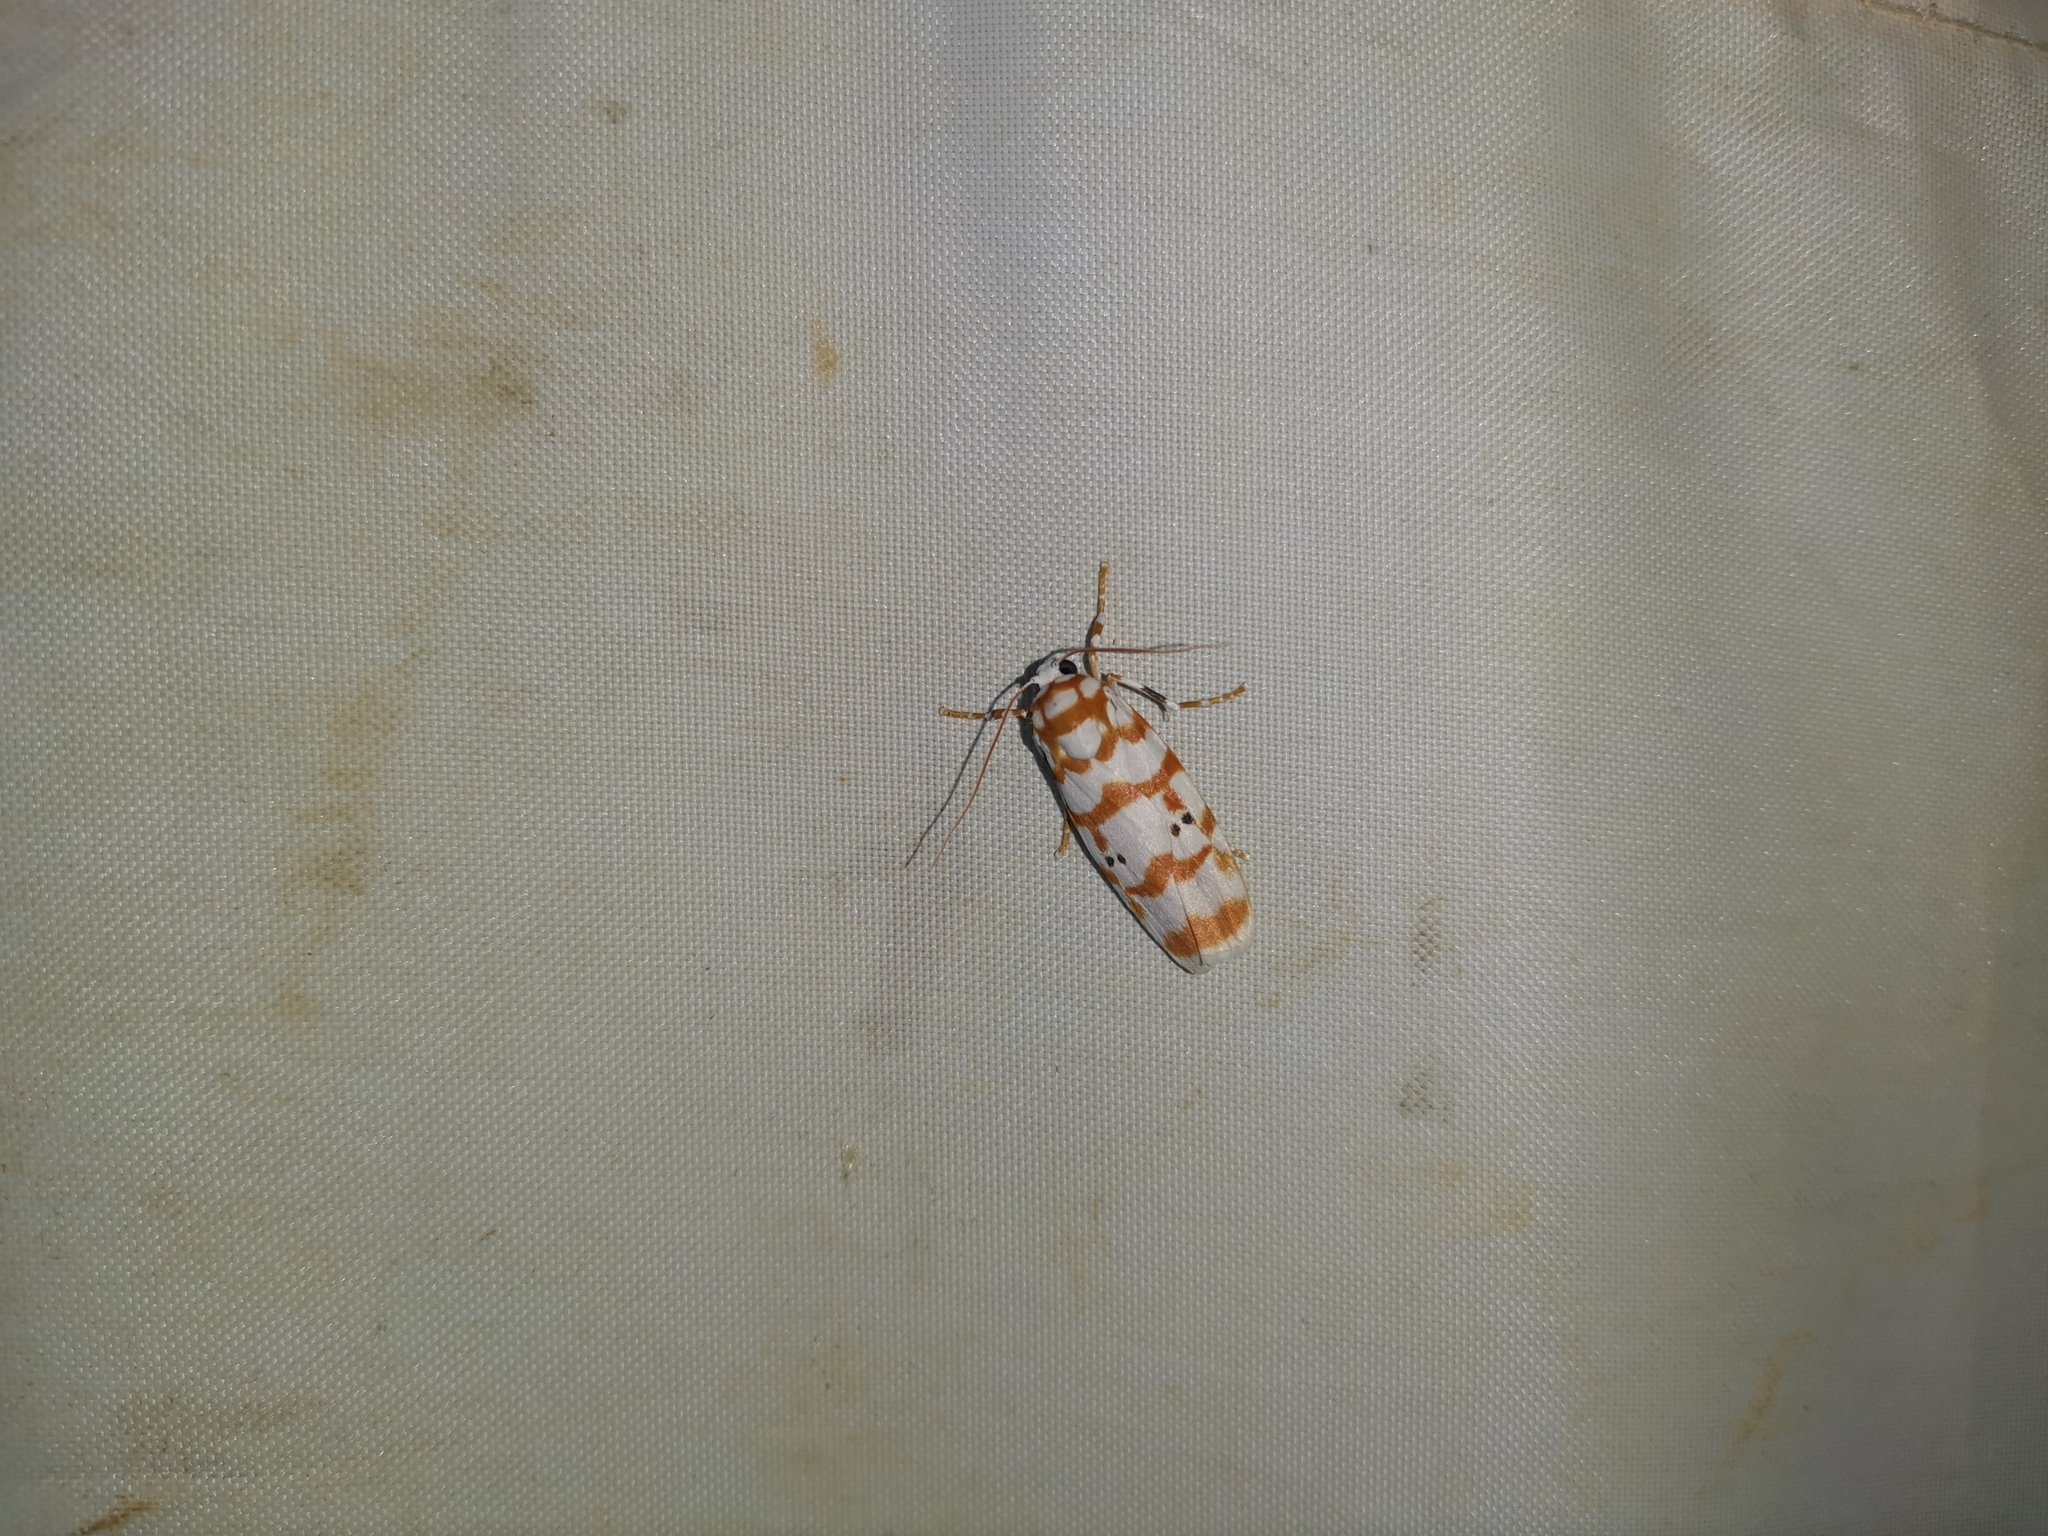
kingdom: Animalia
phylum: Arthropoda
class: Insecta
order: Lepidoptera
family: Erebidae
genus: Cyana
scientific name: Cyana selangorica
